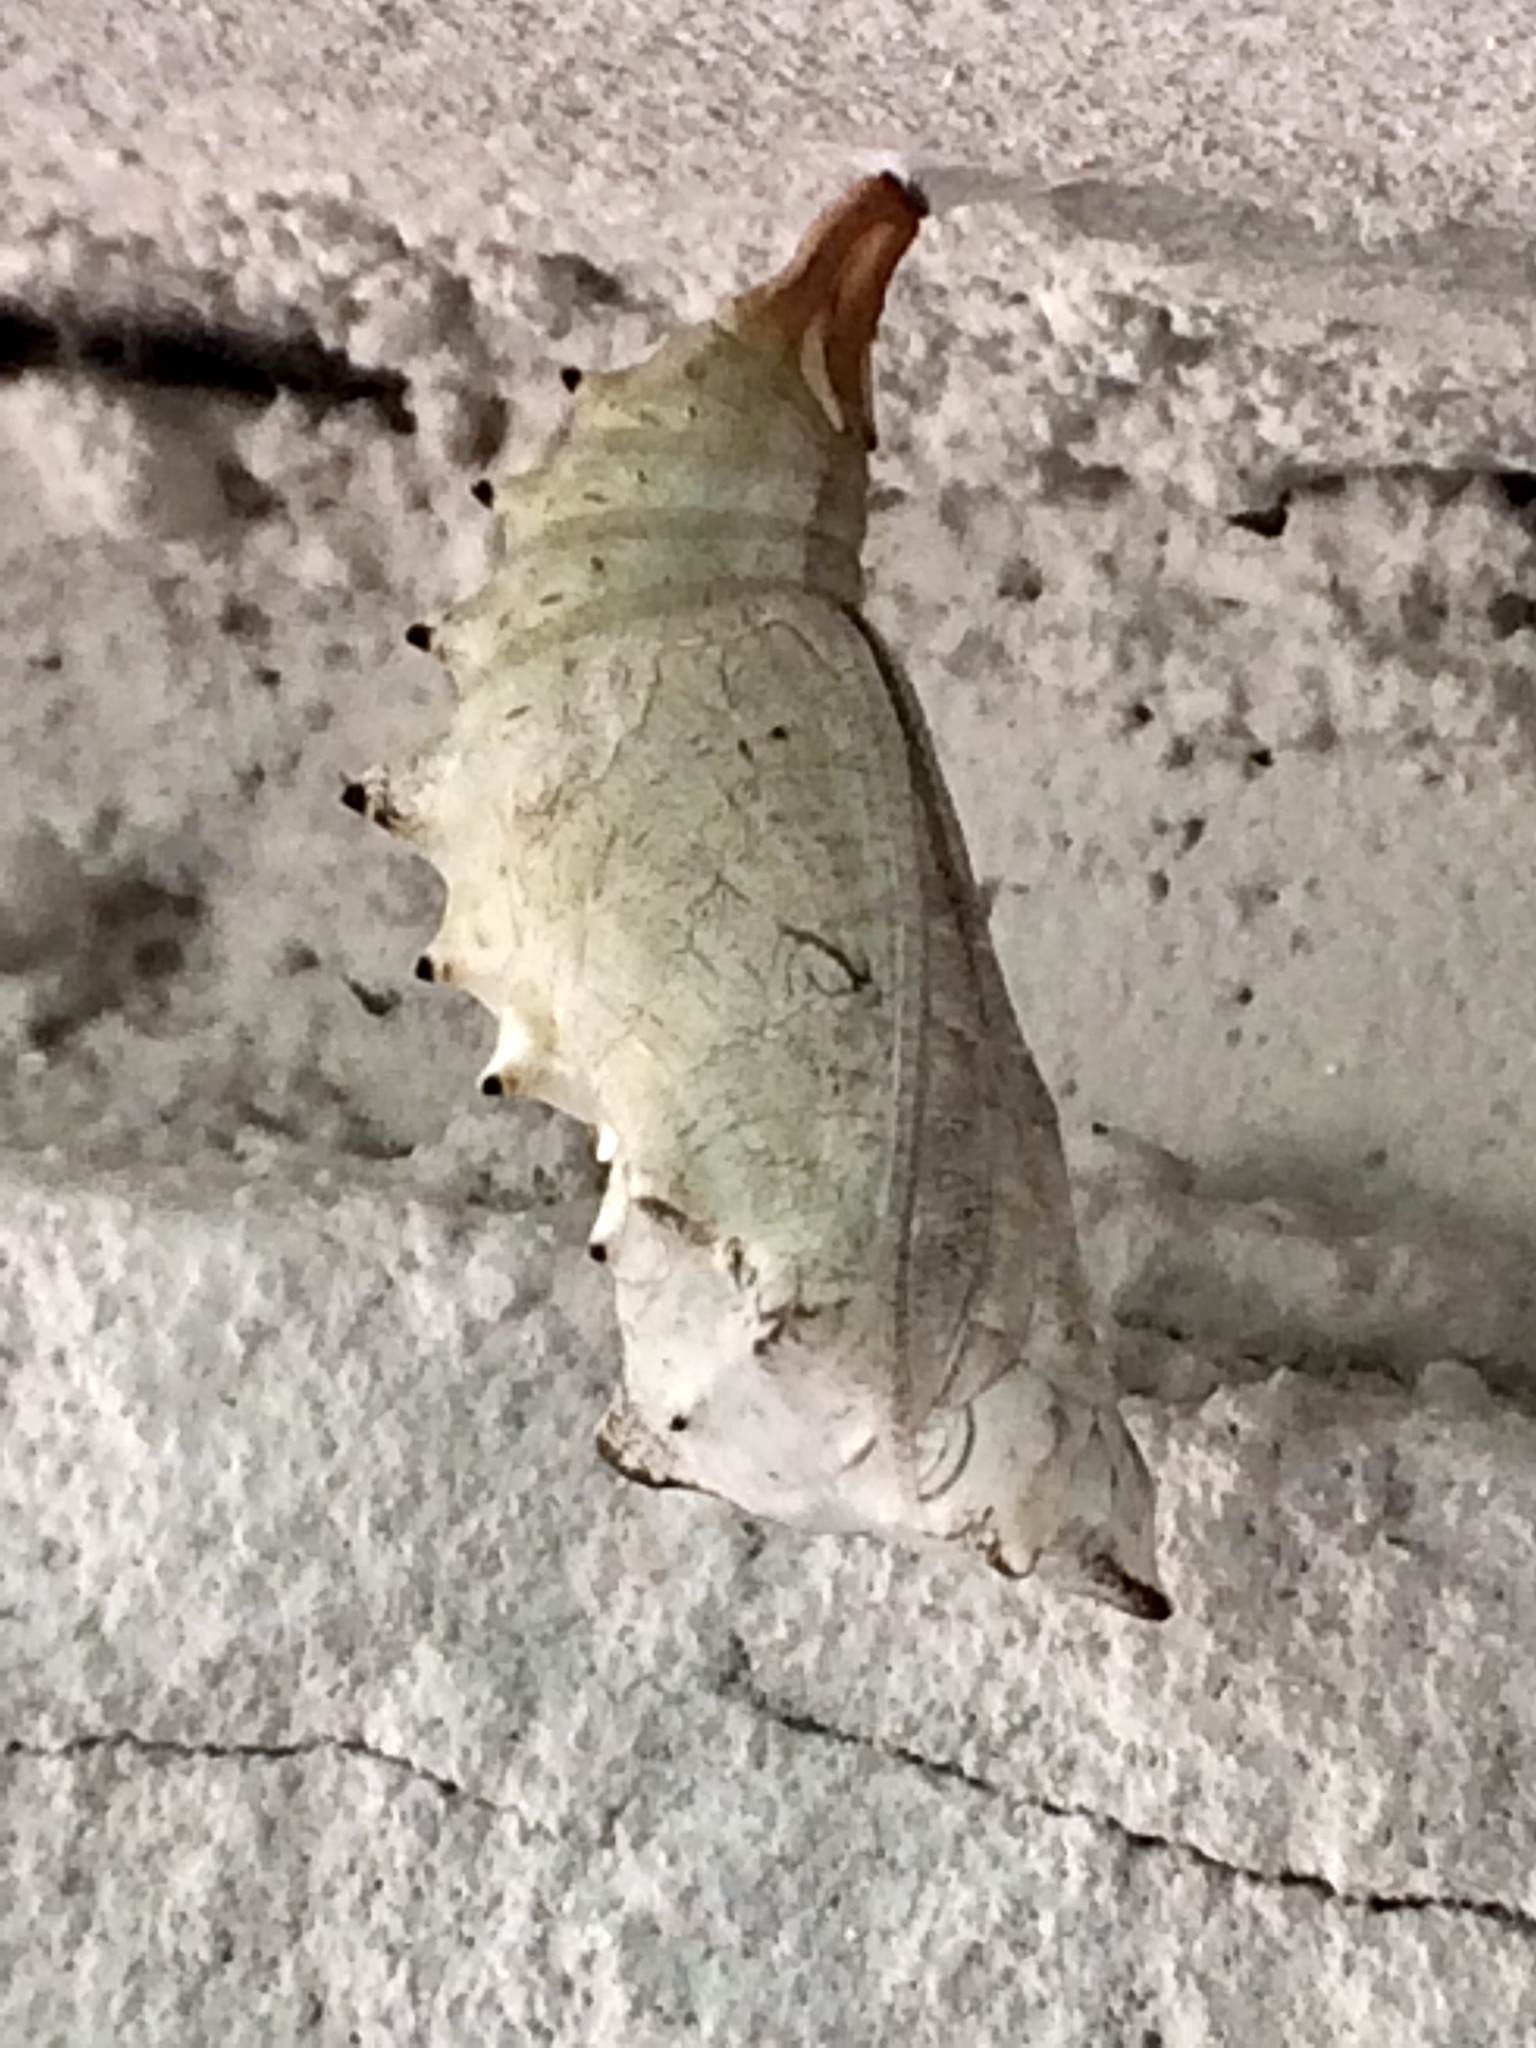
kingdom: Animalia
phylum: Arthropoda
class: Insecta
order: Lepidoptera
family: Nymphalidae
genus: Polygonia
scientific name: Polygonia vaualbum
